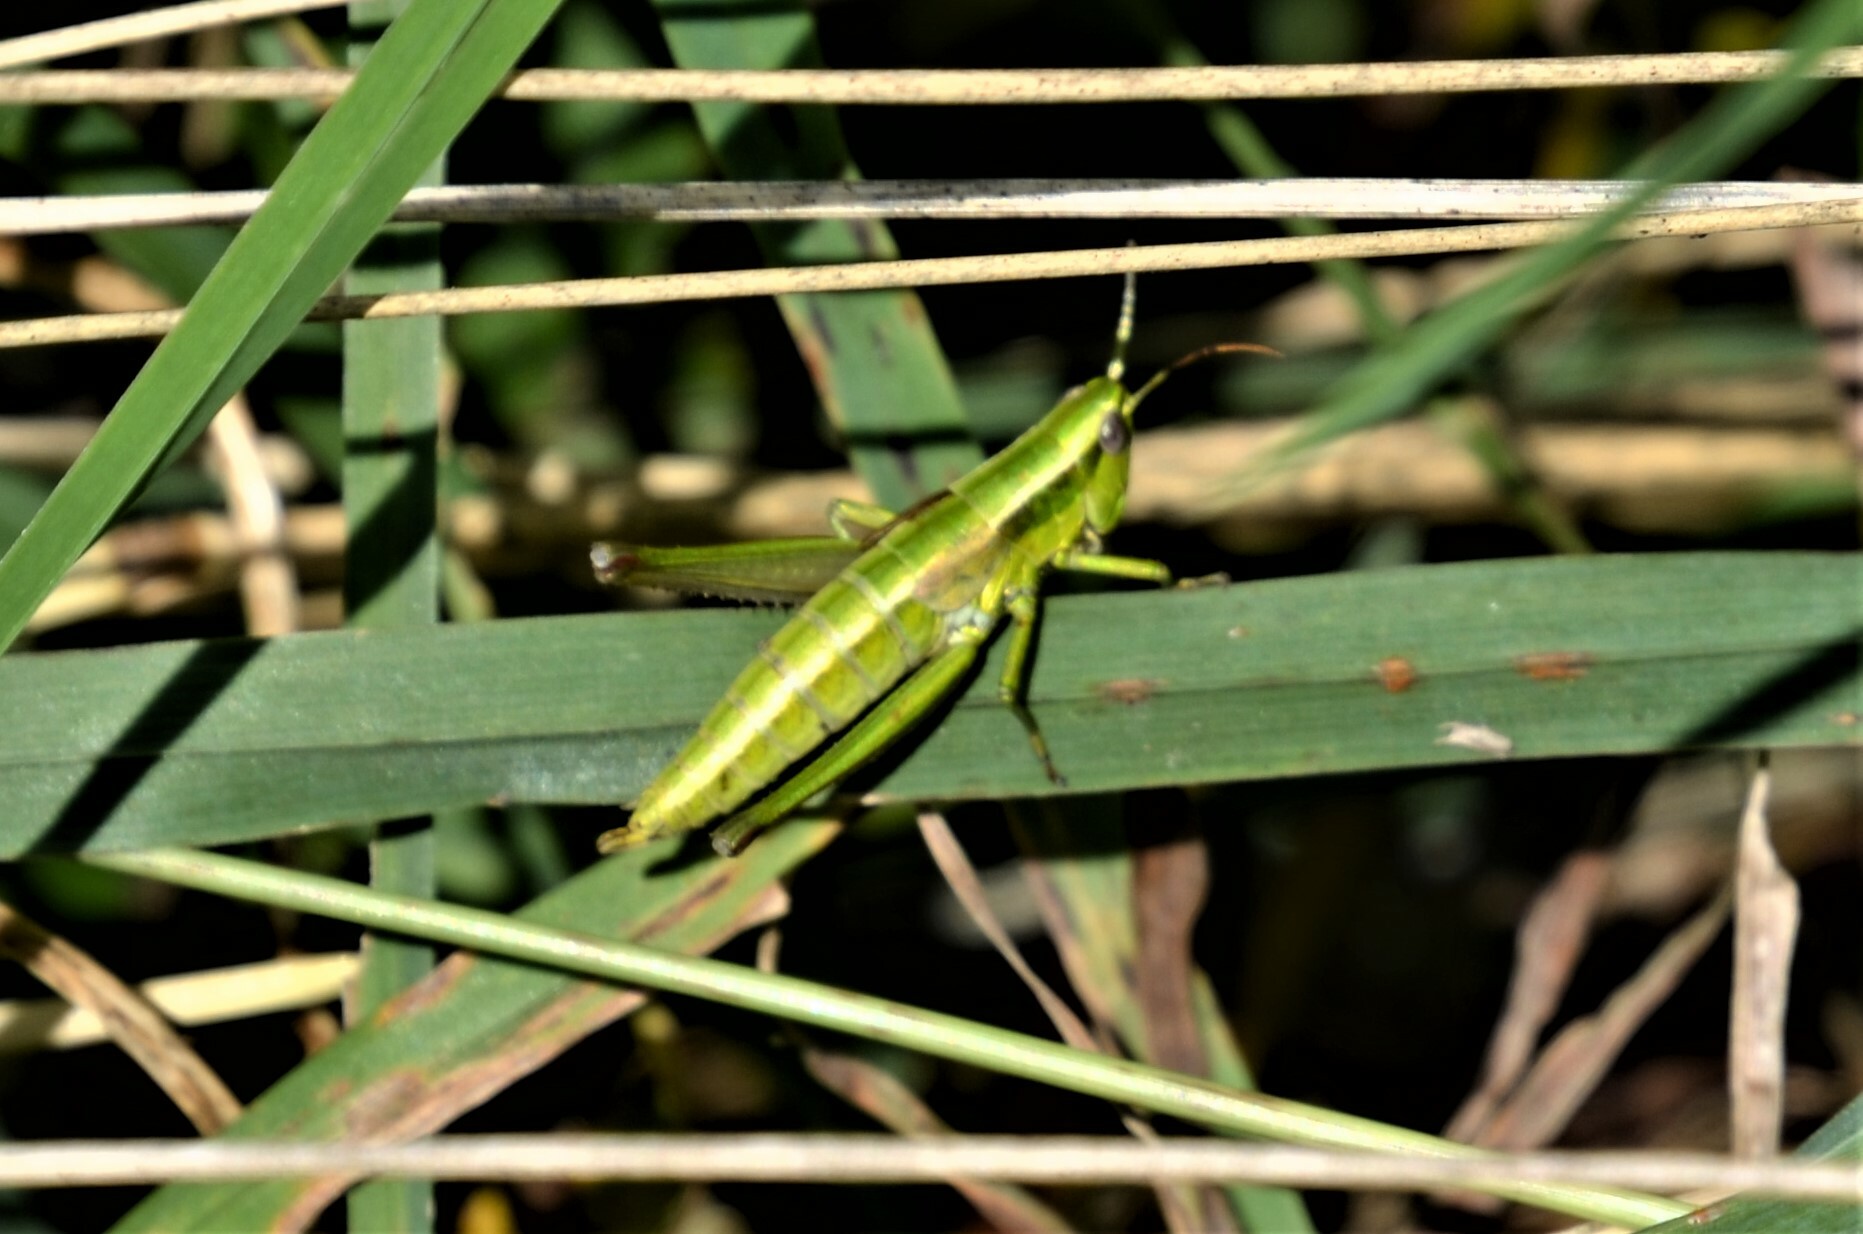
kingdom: Animalia
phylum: Arthropoda
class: Insecta
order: Orthoptera
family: Acrididae
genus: Euthystira
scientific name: Euthystira brachyptera
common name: Small gold grasshopper
